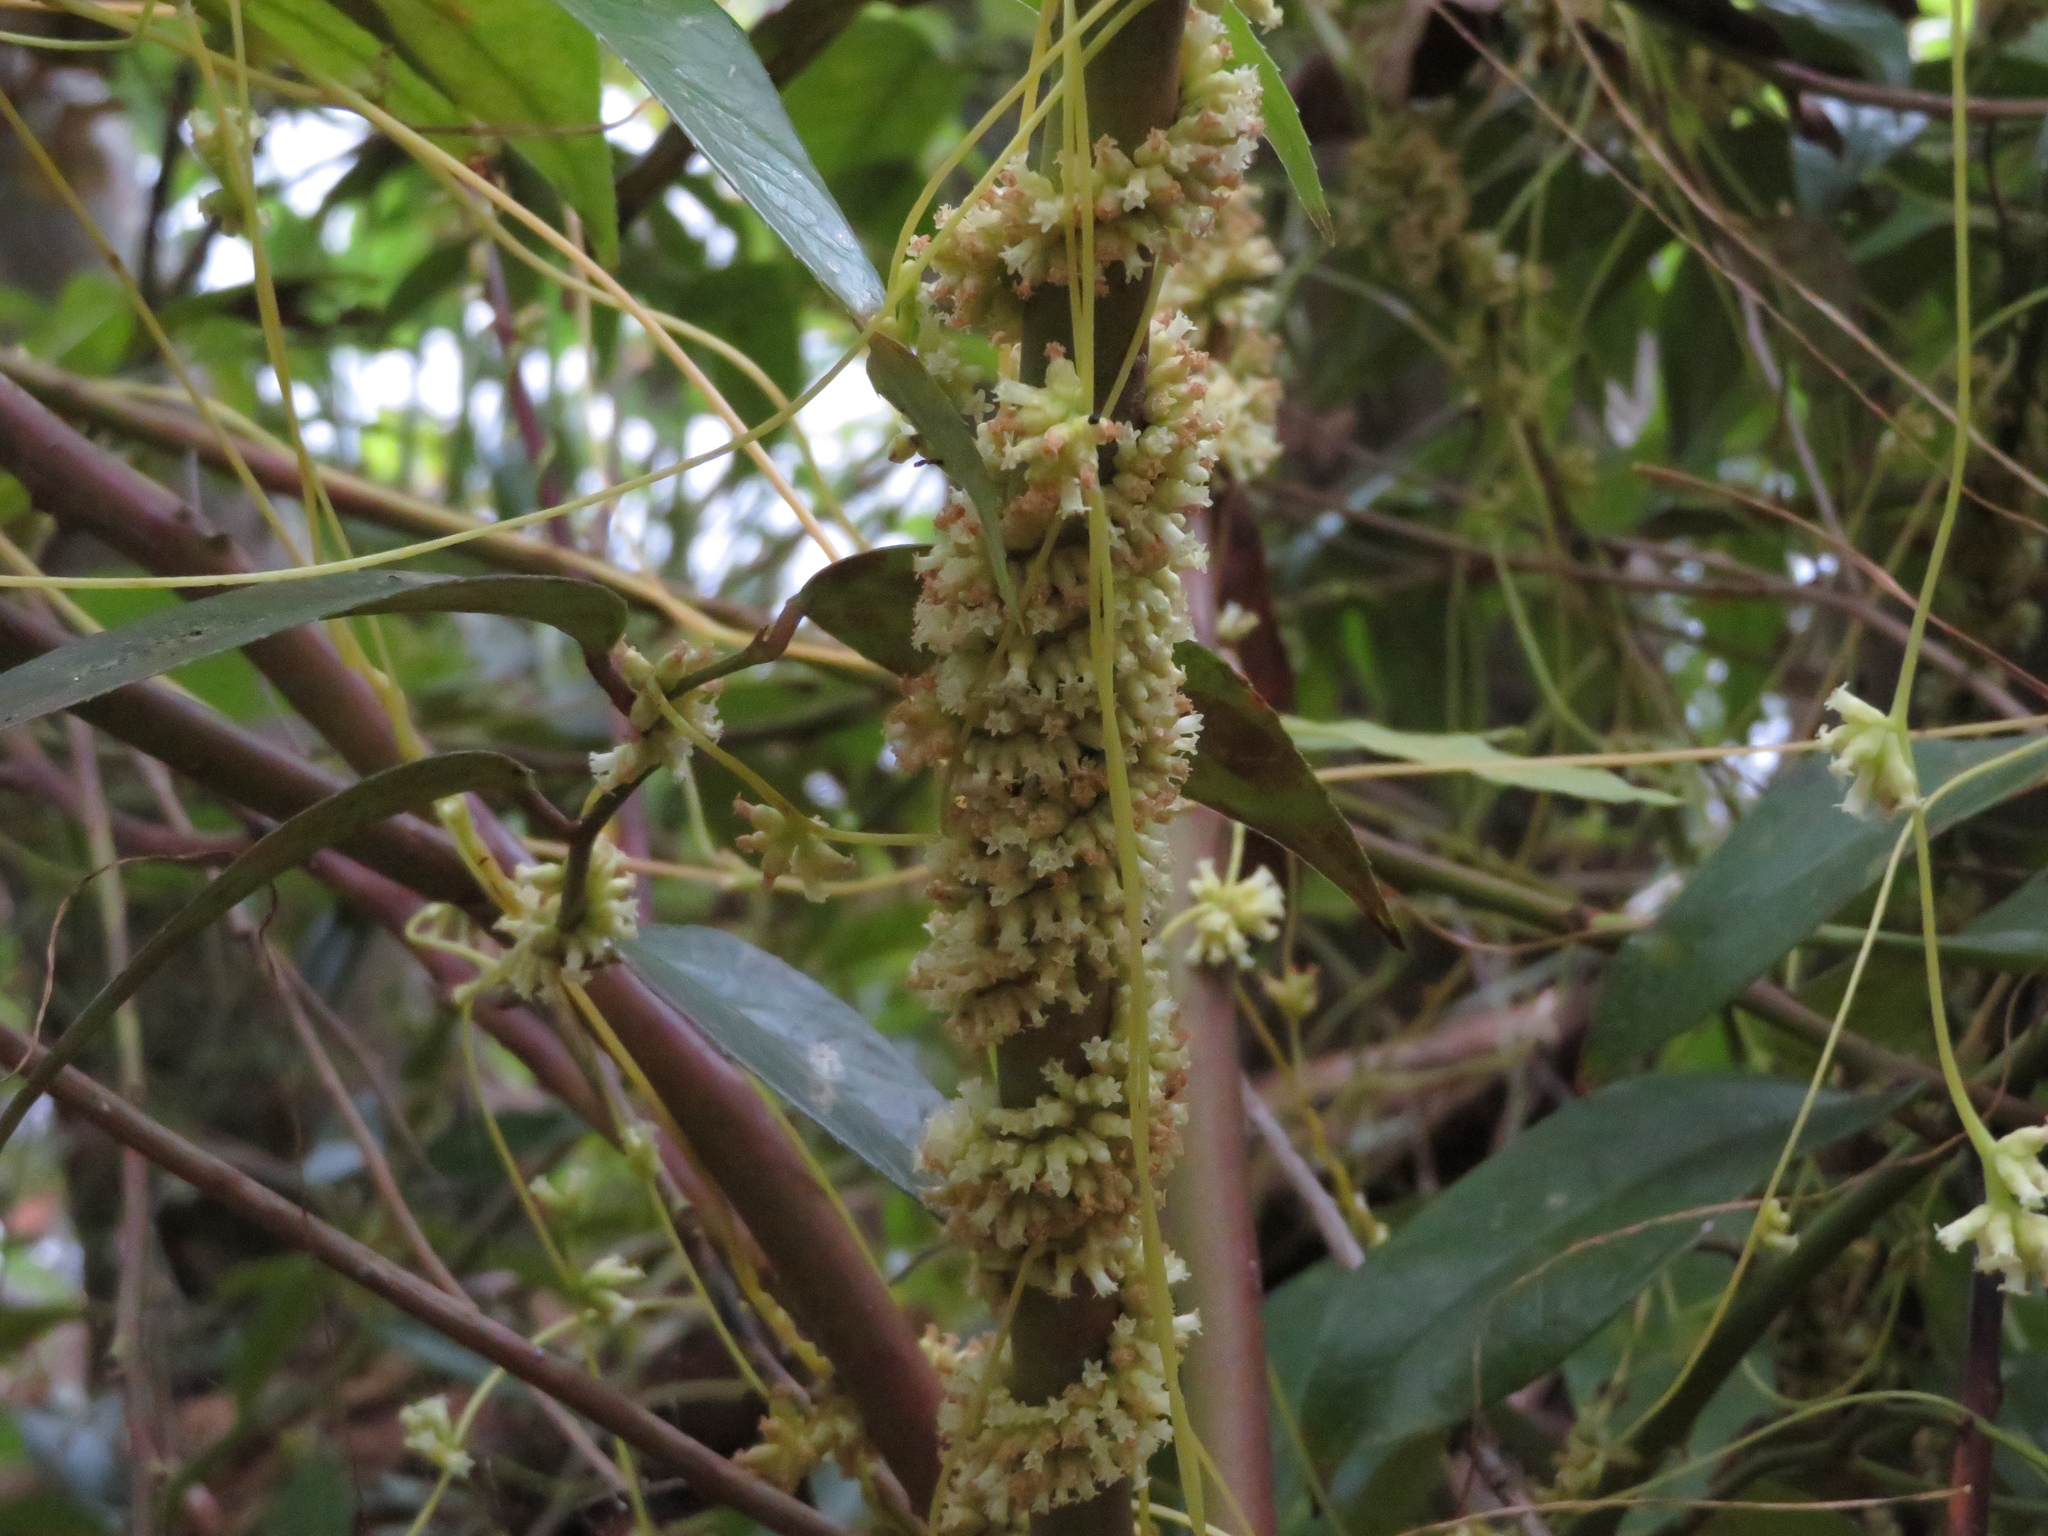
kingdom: Plantae
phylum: Tracheophyta
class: Magnoliopsida
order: Solanales
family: Convolvulaceae
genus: Cuscuta
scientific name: Cuscuta compacta
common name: Compact dodder
